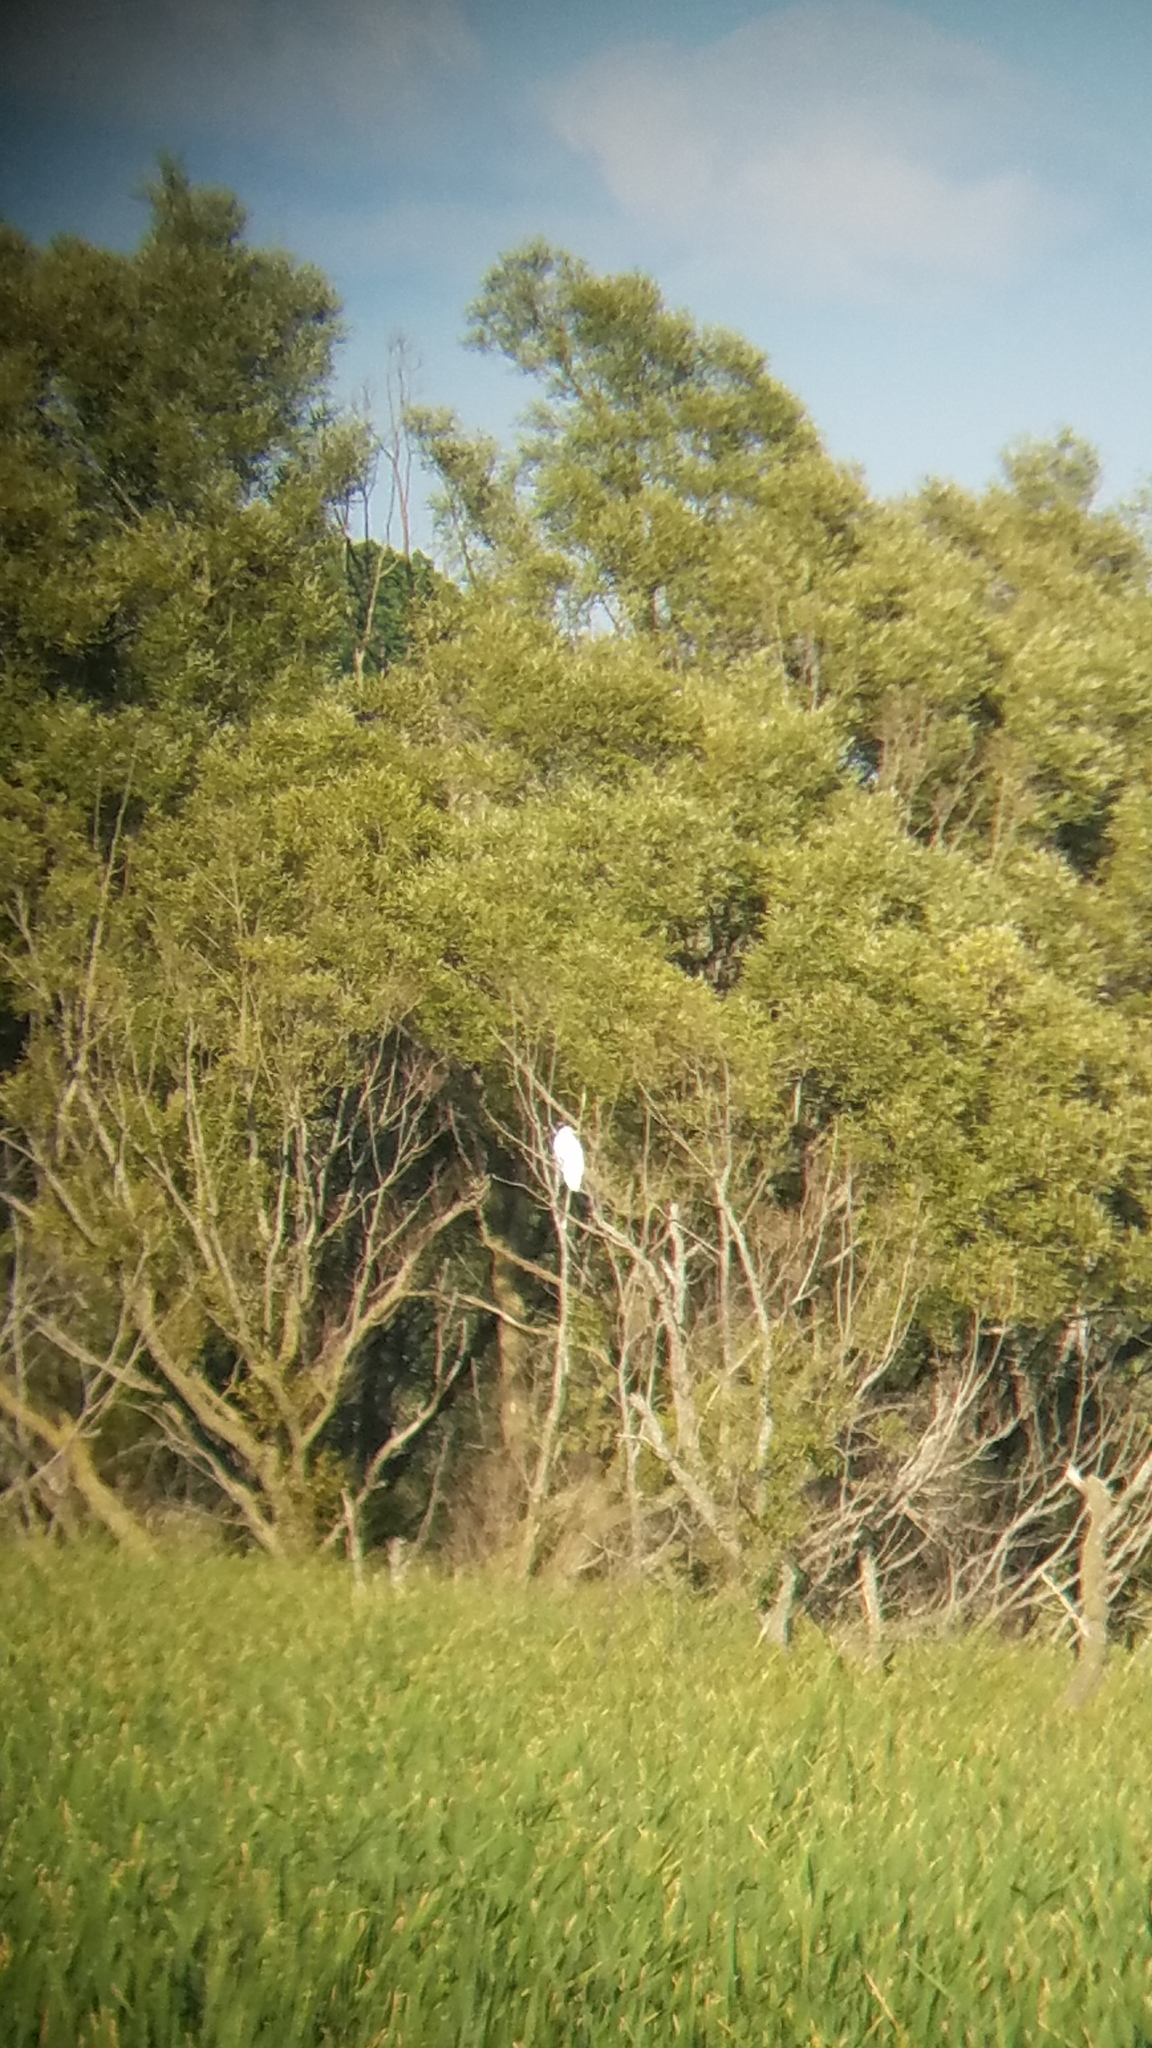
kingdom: Animalia
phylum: Chordata
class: Aves
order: Pelecaniformes
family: Ardeidae
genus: Ardea
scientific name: Ardea alba
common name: Great egret
